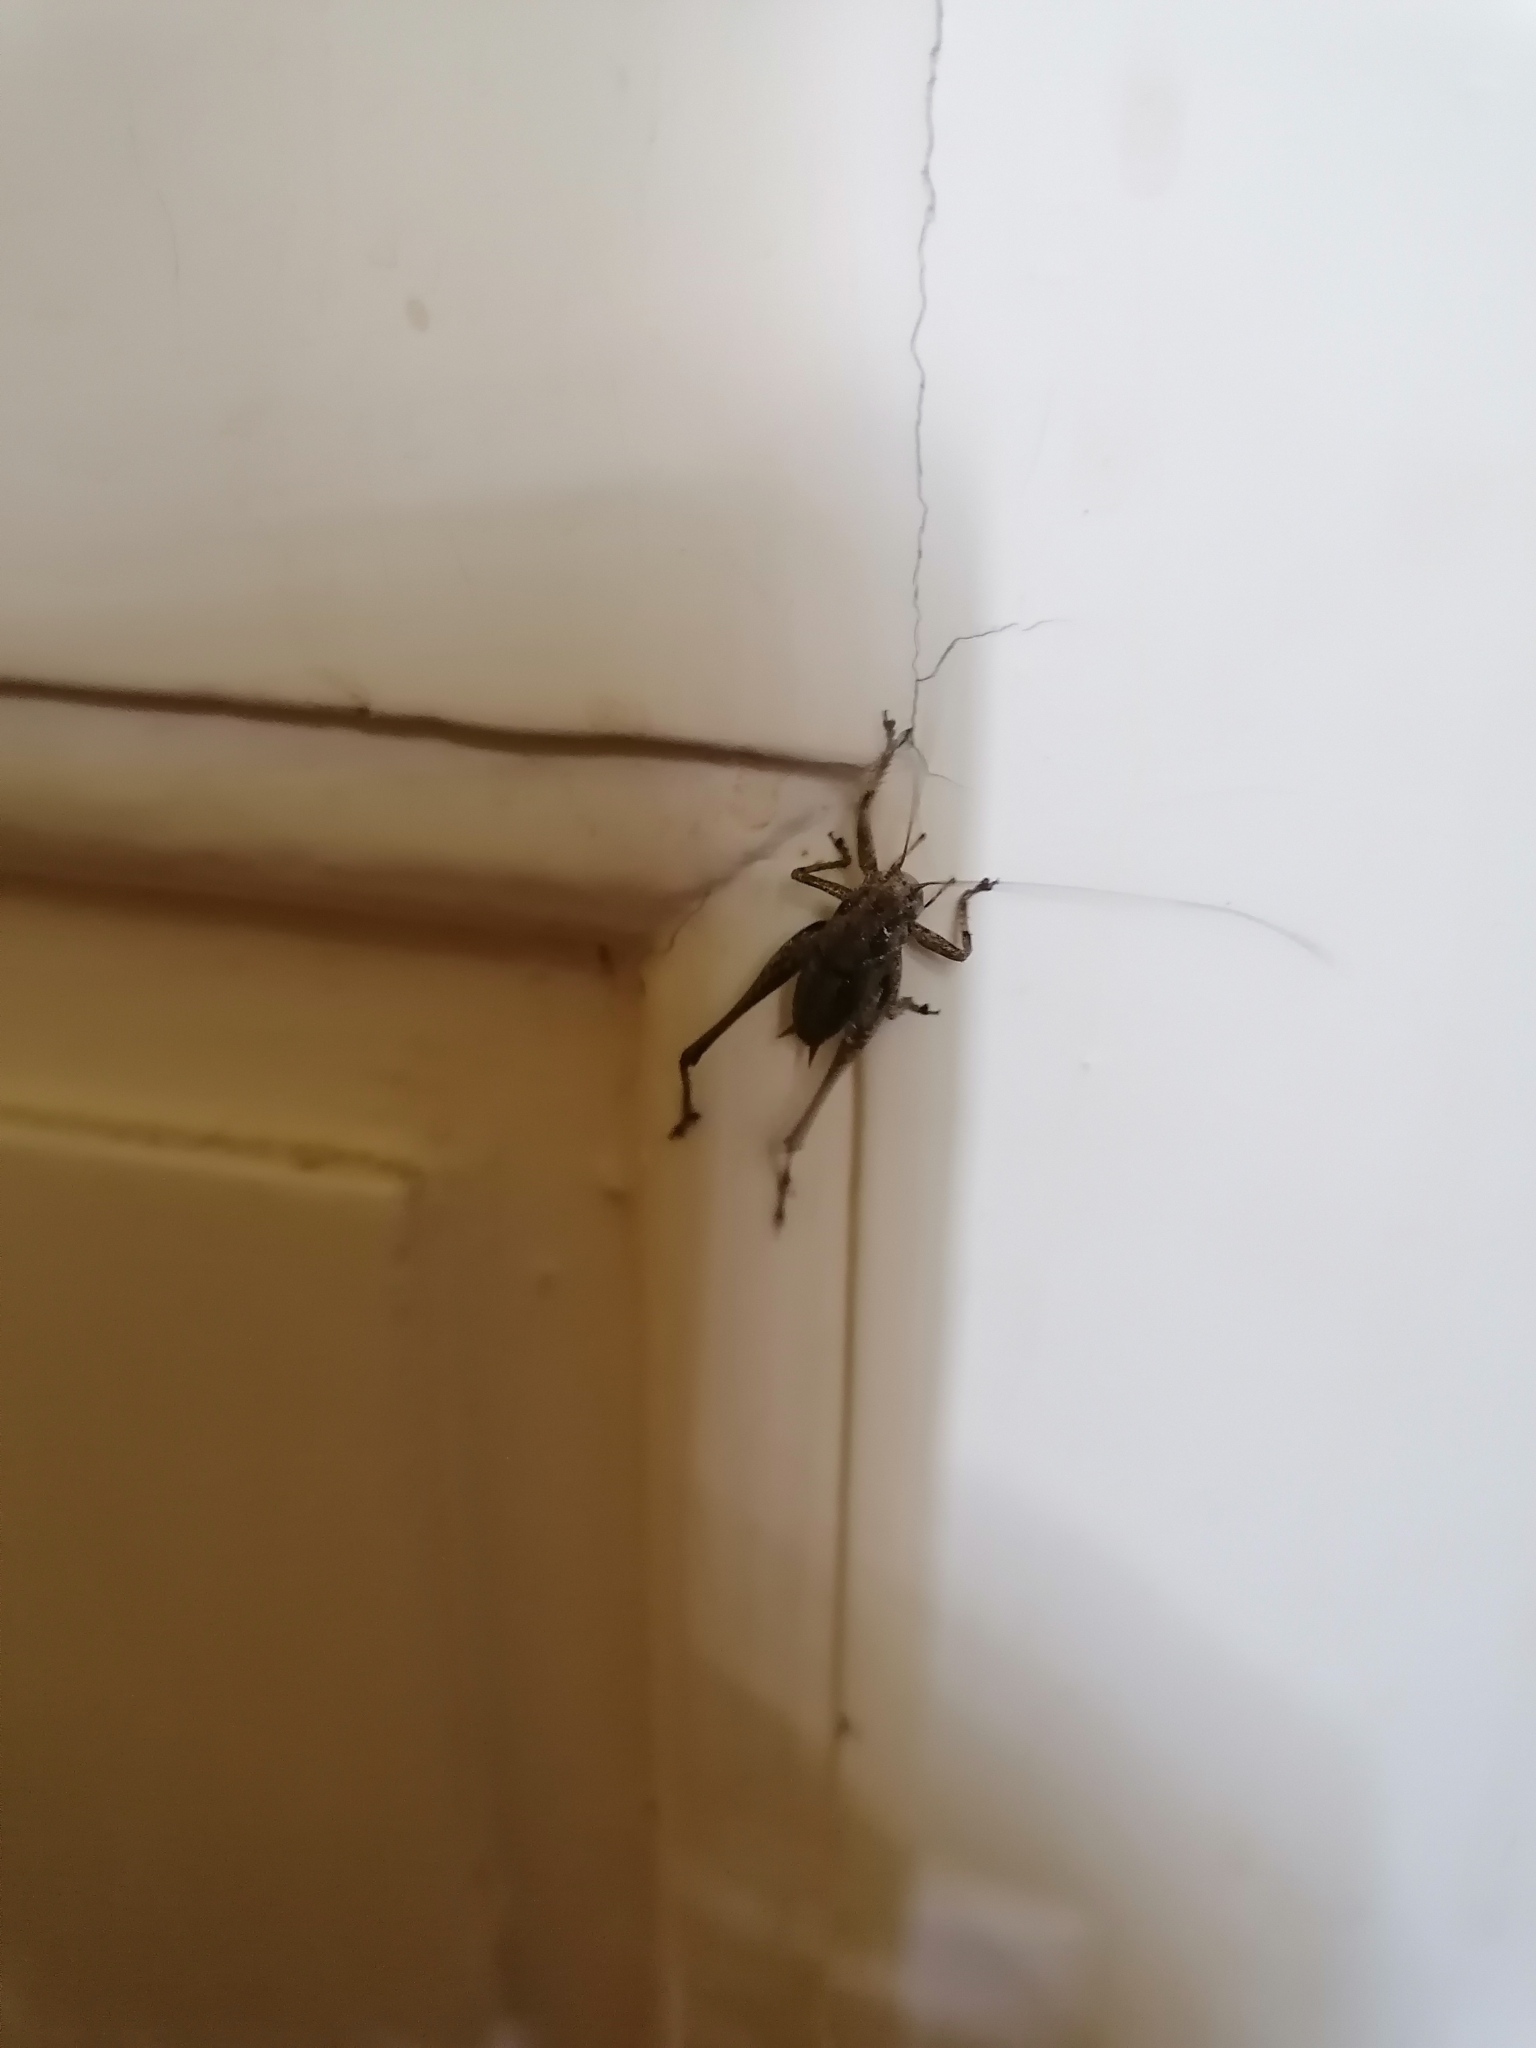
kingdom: Animalia
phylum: Arthropoda
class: Insecta
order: Orthoptera
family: Tettigoniidae
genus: Pholidoptera
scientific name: Pholidoptera griseoaptera
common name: Dark bush-cricket
